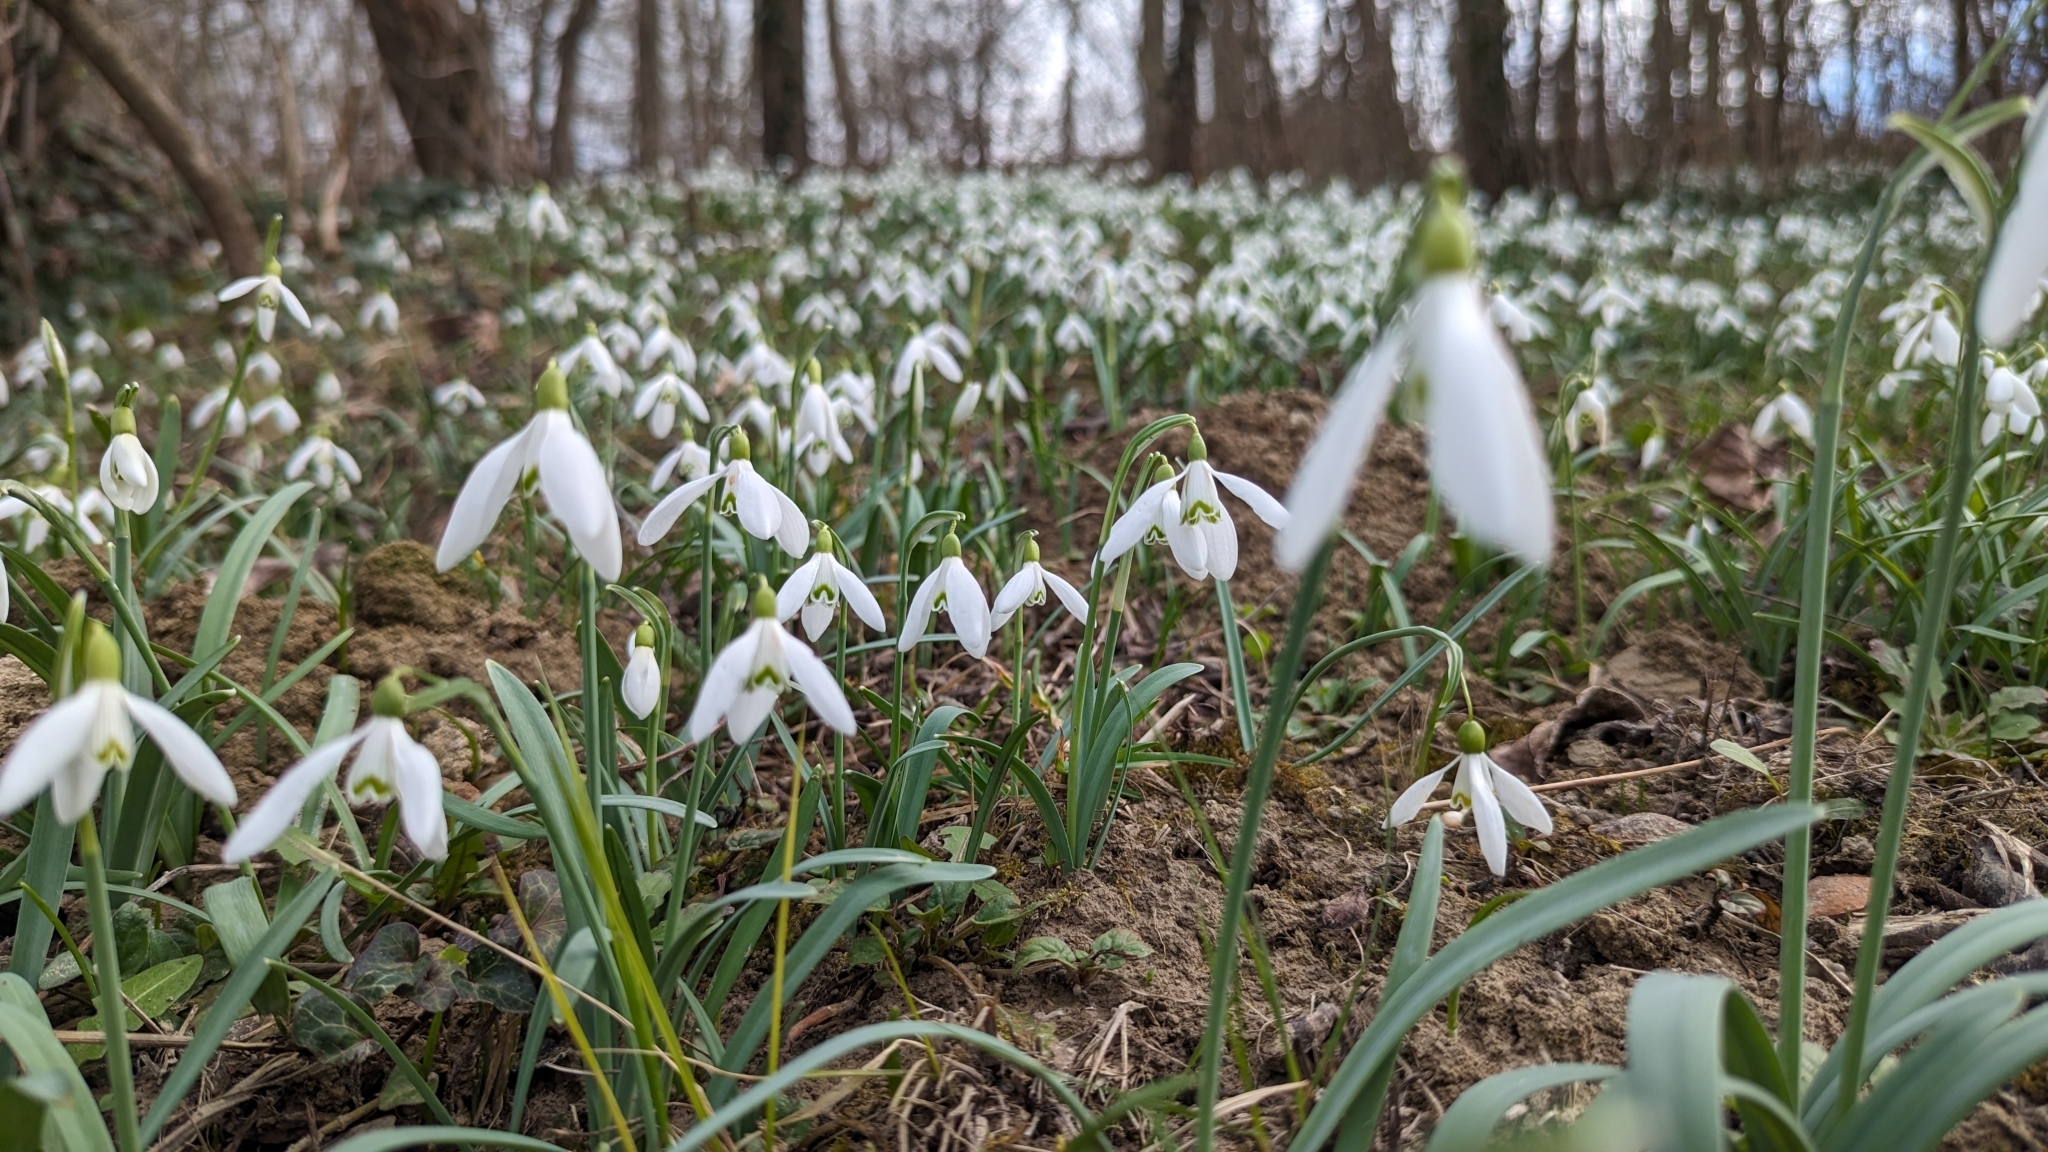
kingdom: Plantae
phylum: Tracheophyta
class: Liliopsida
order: Asparagales
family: Amaryllidaceae
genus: Galanthus
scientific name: Galanthus nivalis
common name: Snowdrop
